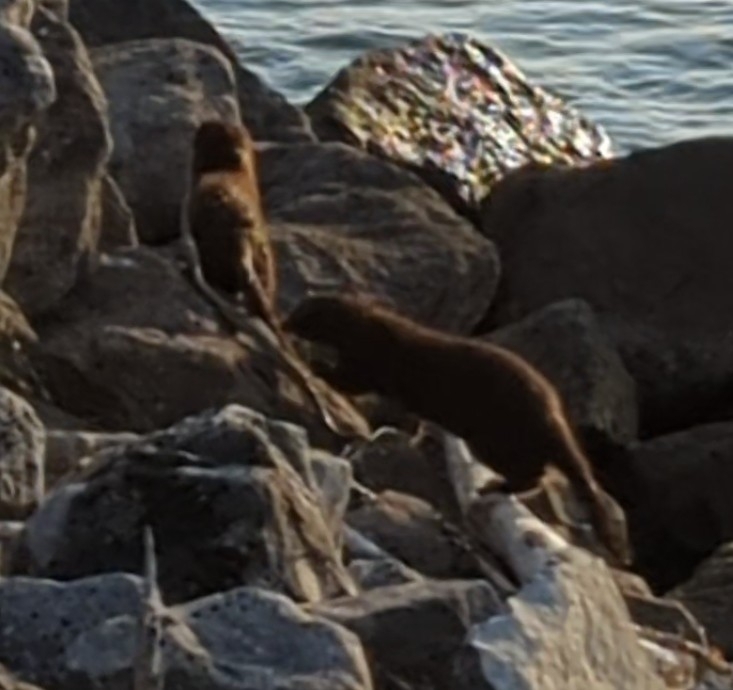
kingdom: Animalia
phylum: Chordata
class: Squamata
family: Colubridae
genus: Nerodia
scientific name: Nerodia sipedon
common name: Northern water snake
